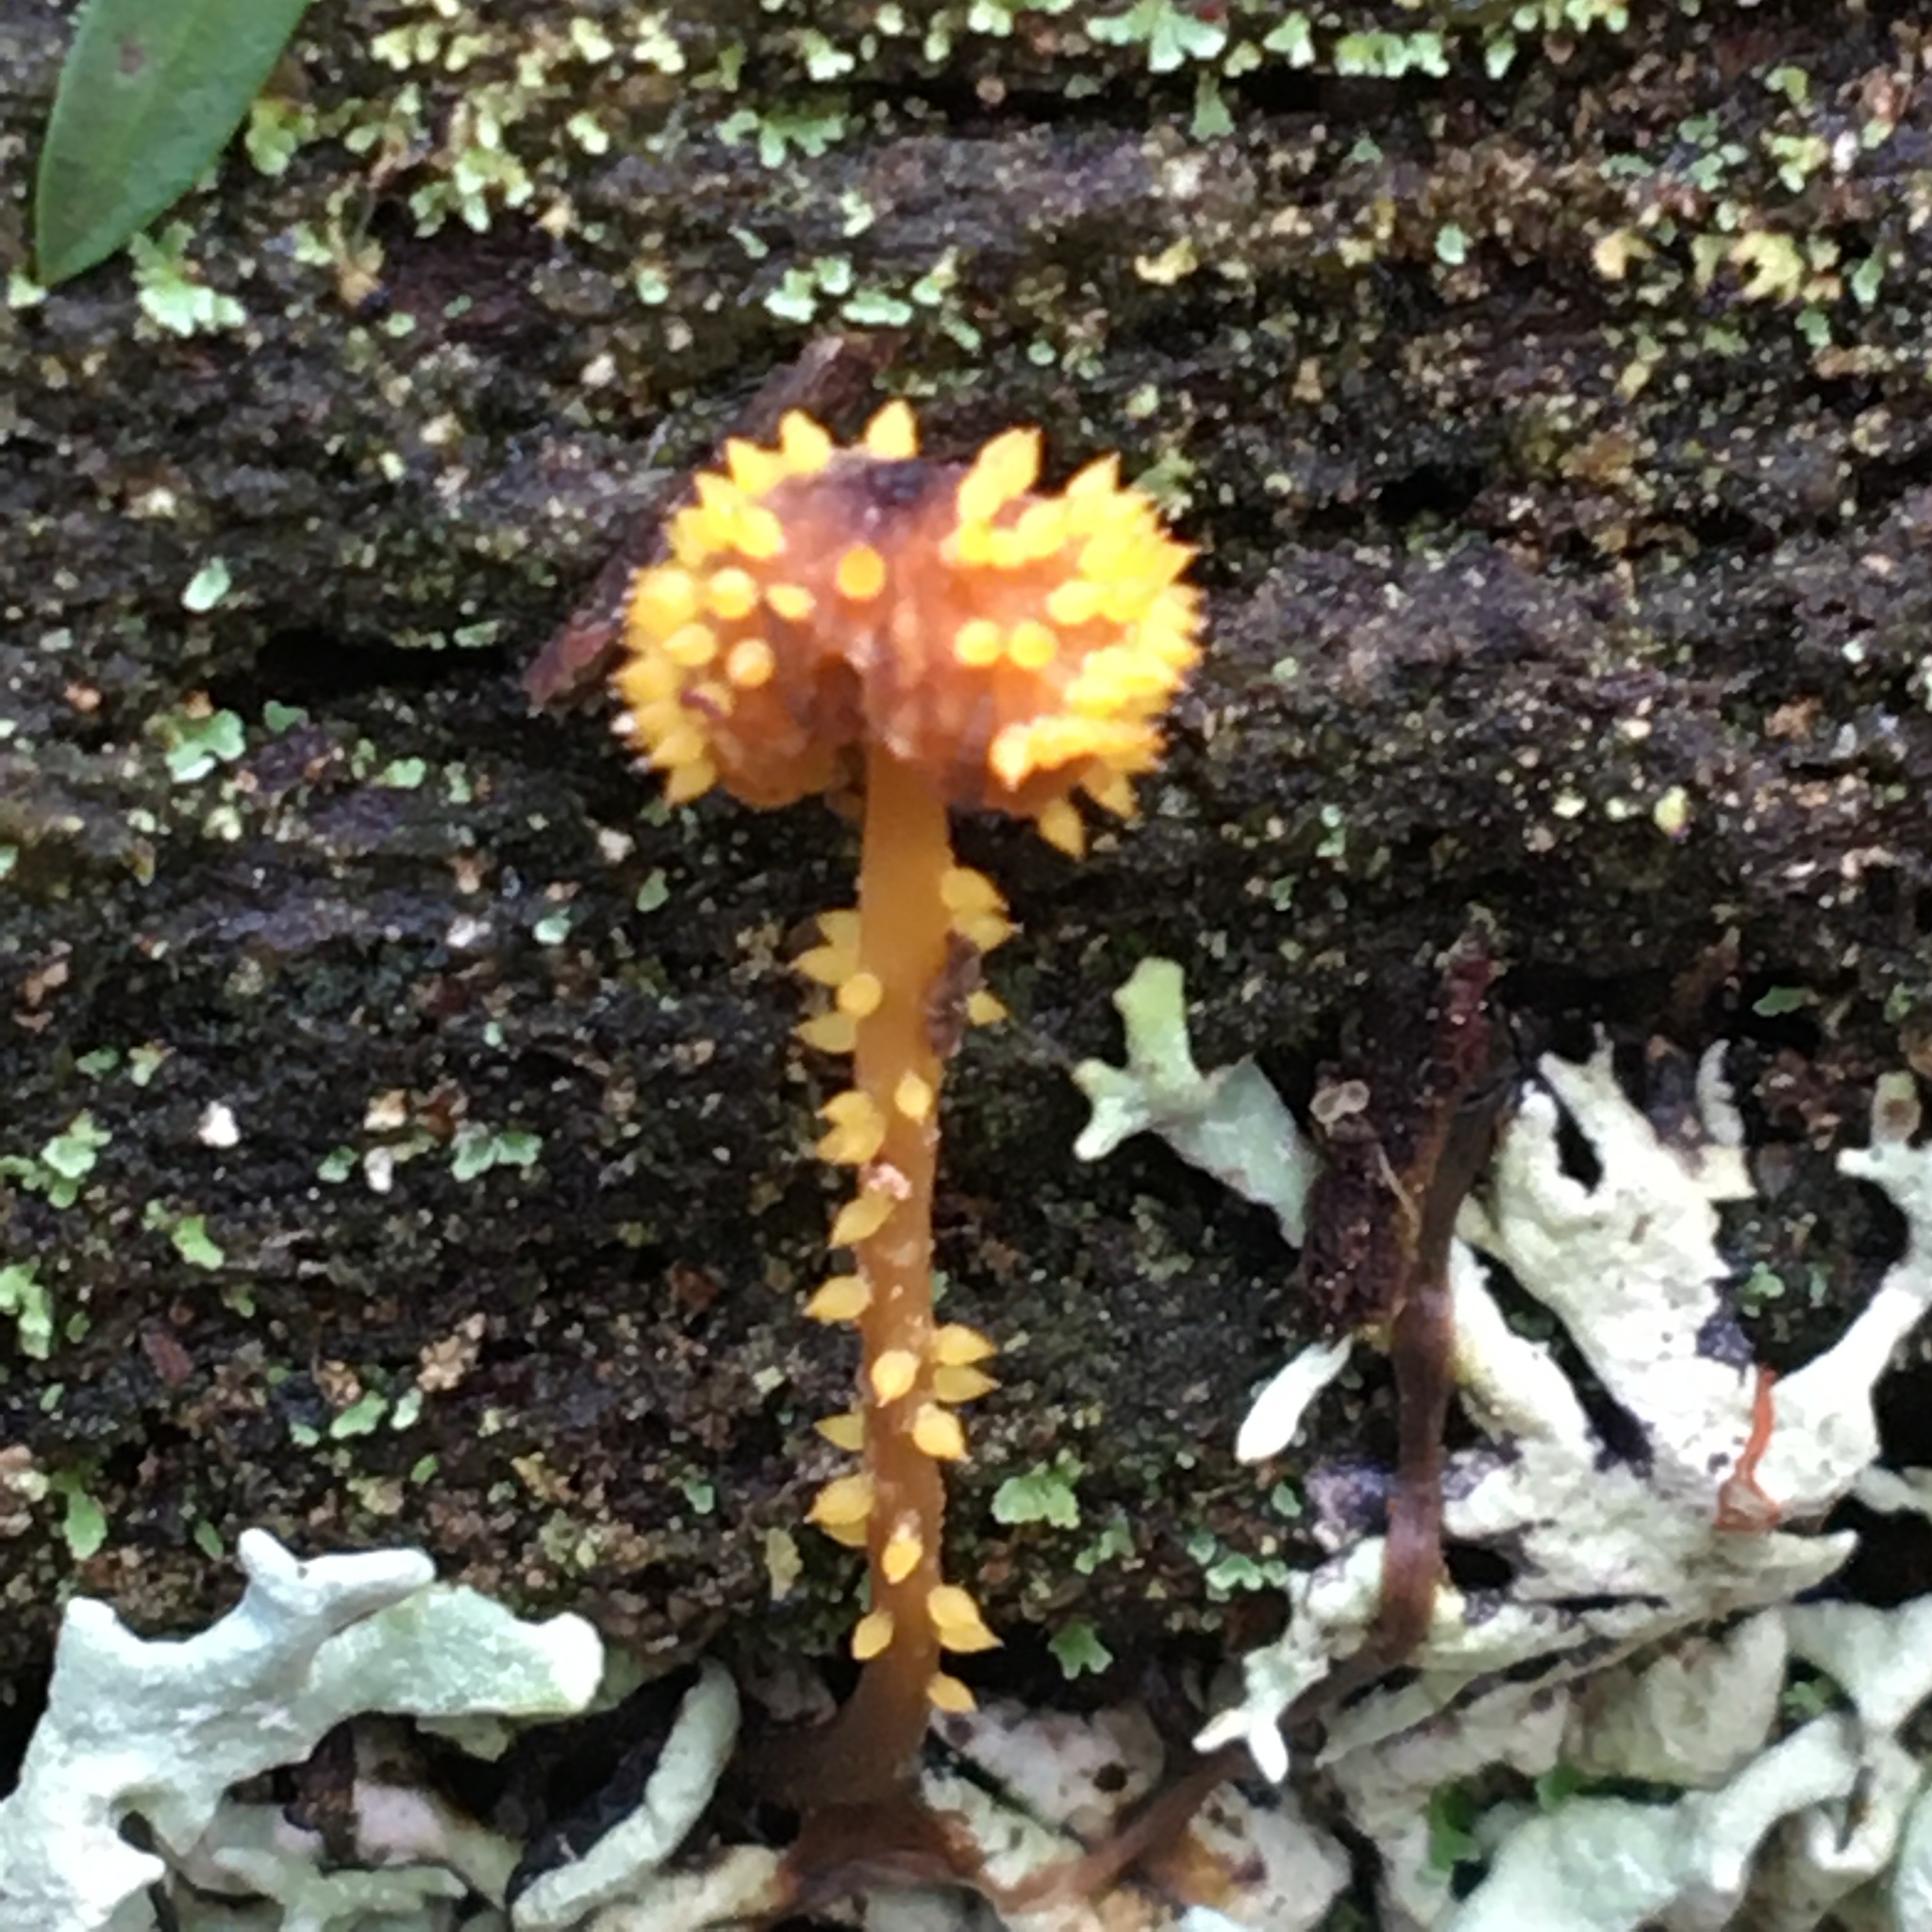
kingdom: Fungi
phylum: Ascomycota
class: Sordariomycetes
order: Hypocreales
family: Clavicipitaceae
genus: Neobarya
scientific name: Neobarya agaricicola
